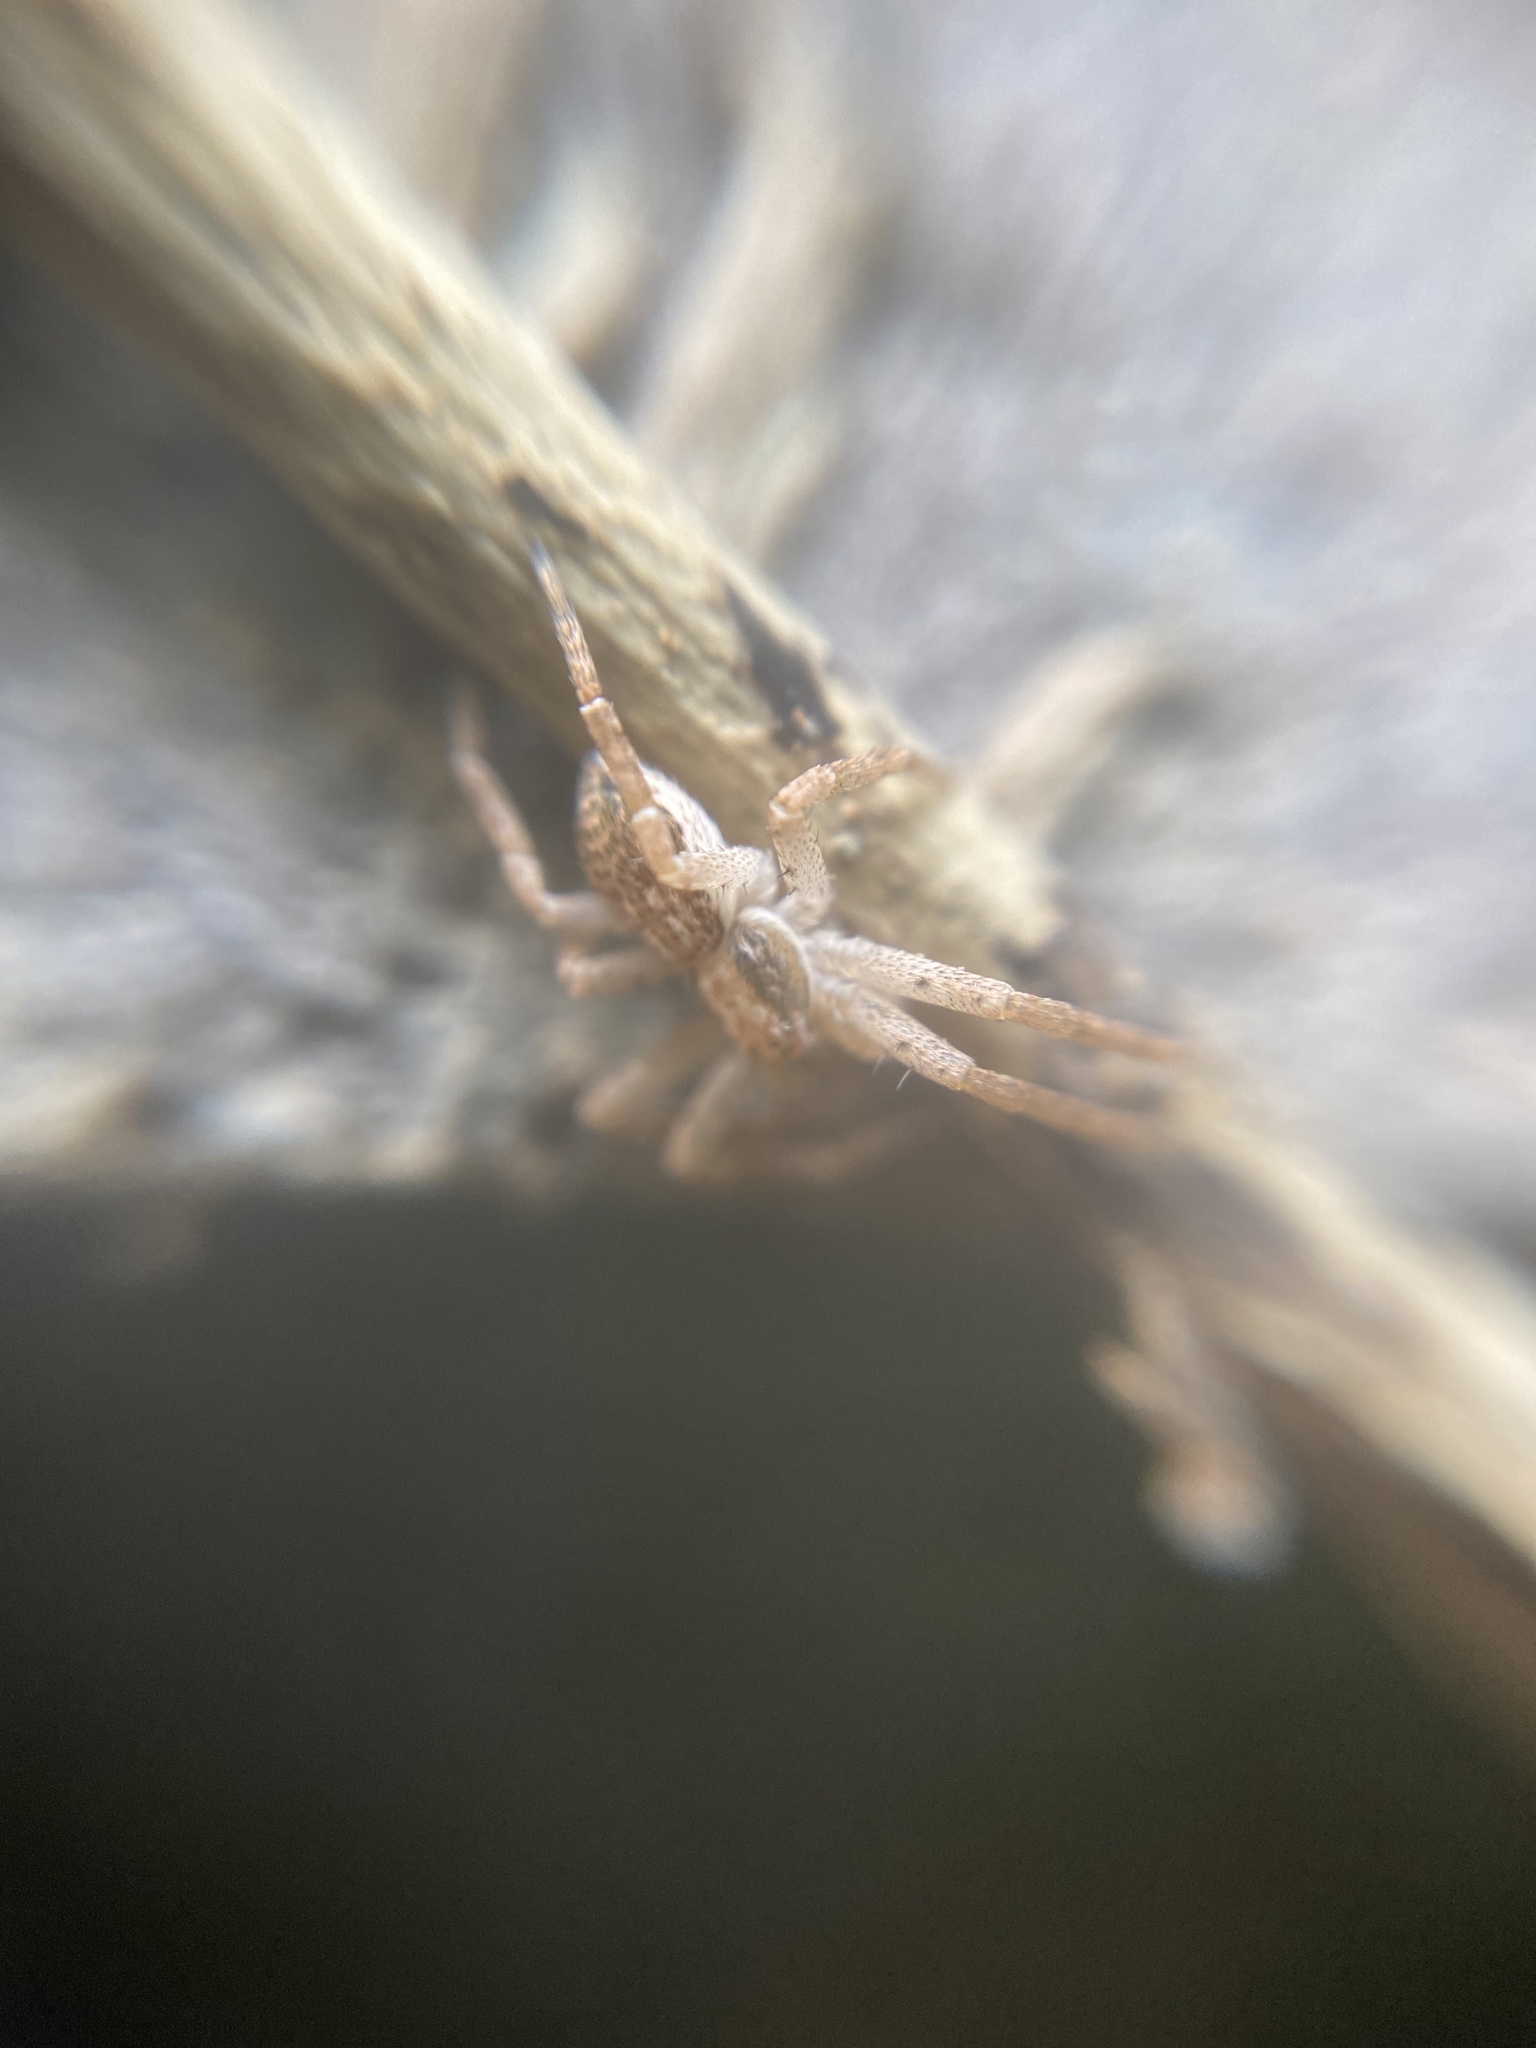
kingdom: Animalia
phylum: Arthropoda
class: Arachnida
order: Araneae
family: Philodromidae
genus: Philodromus
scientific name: Philodromus dispar
